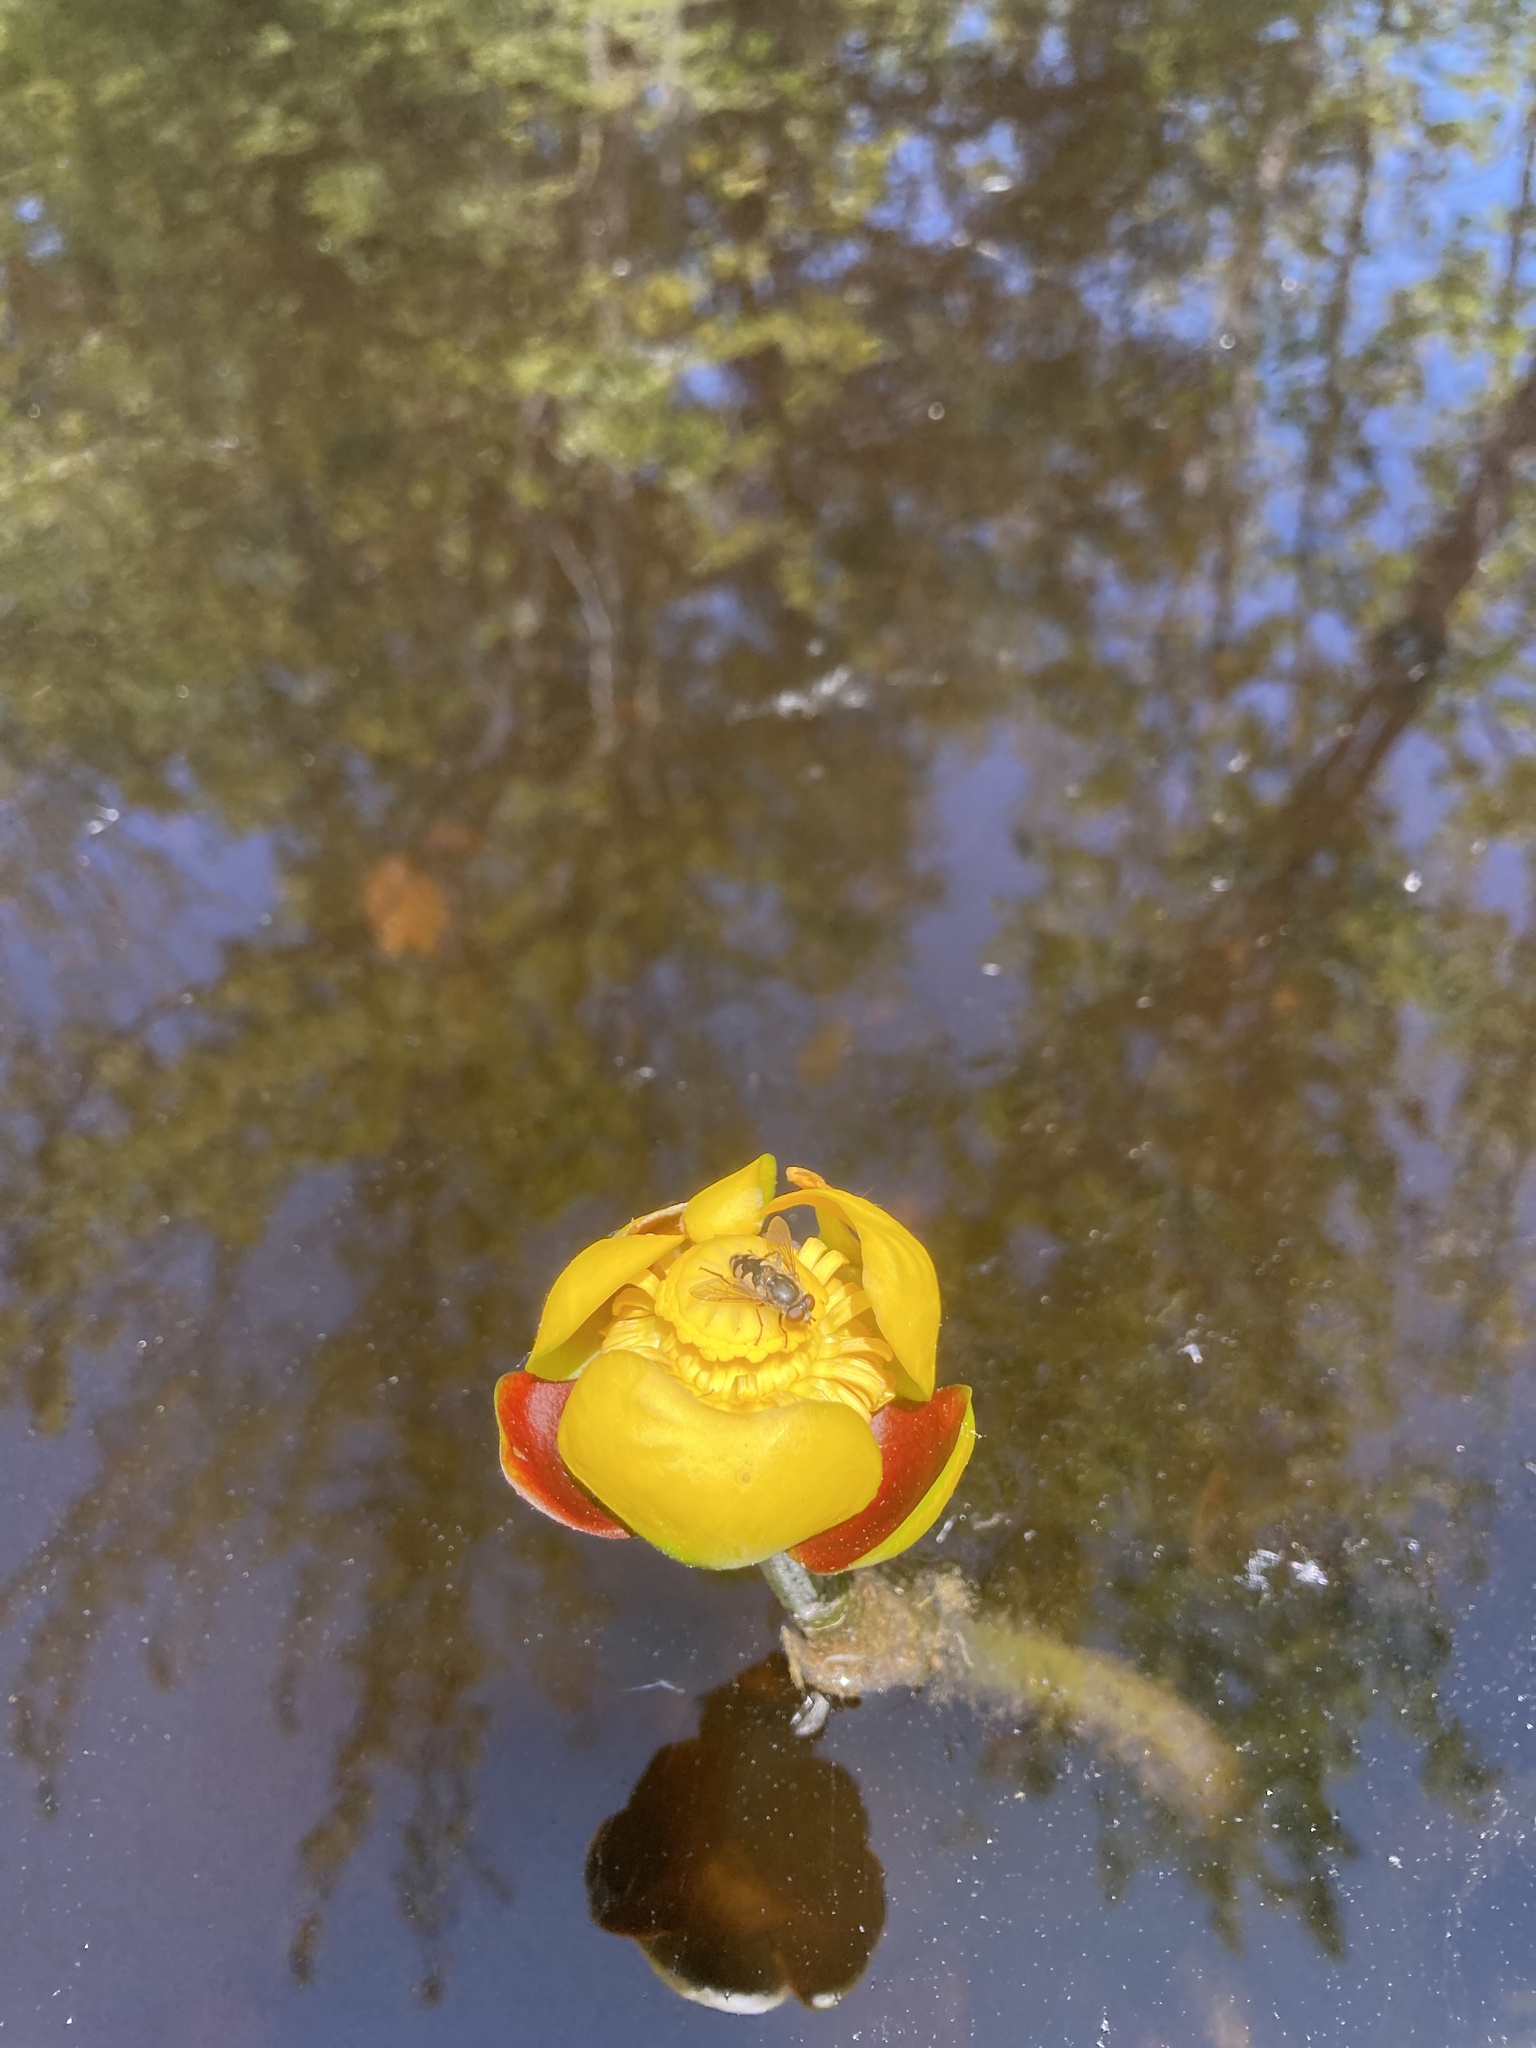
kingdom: Plantae
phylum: Tracheophyta
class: Magnoliopsida
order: Nymphaeales
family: Nymphaeaceae
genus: Nuphar
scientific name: Nuphar variegata
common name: Beaver-root
